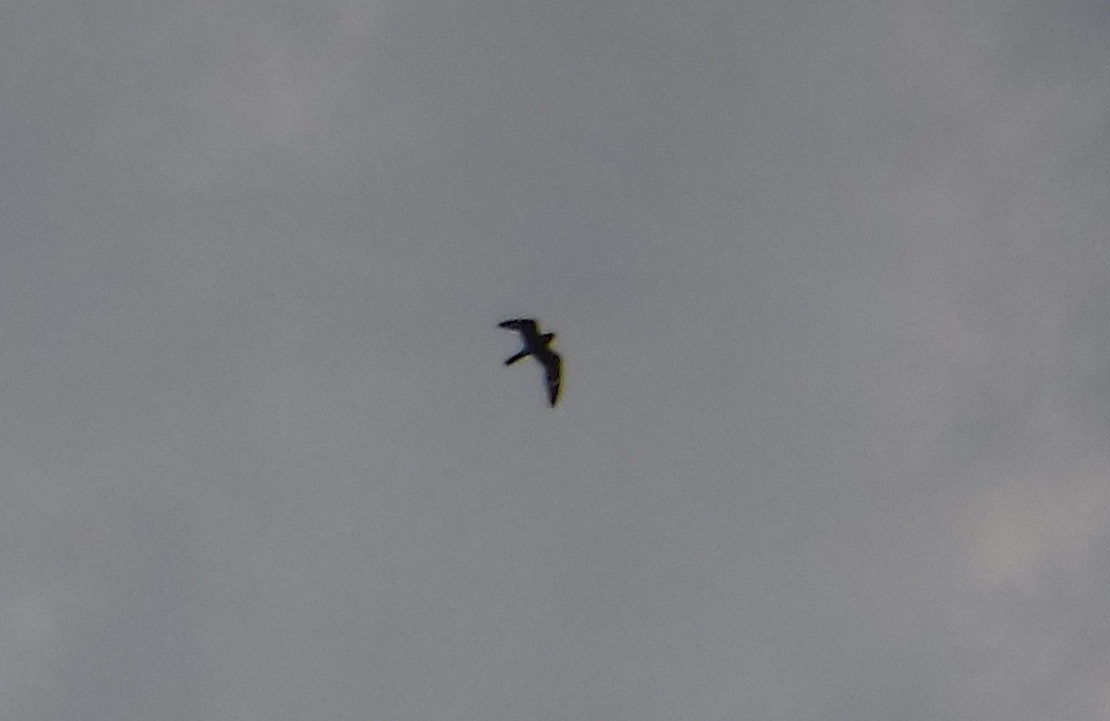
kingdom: Animalia
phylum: Chordata
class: Aves
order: Caprimulgiformes
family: Caprimulgidae
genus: Chordeiles
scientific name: Chordeiles minor
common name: Common nighthawk
